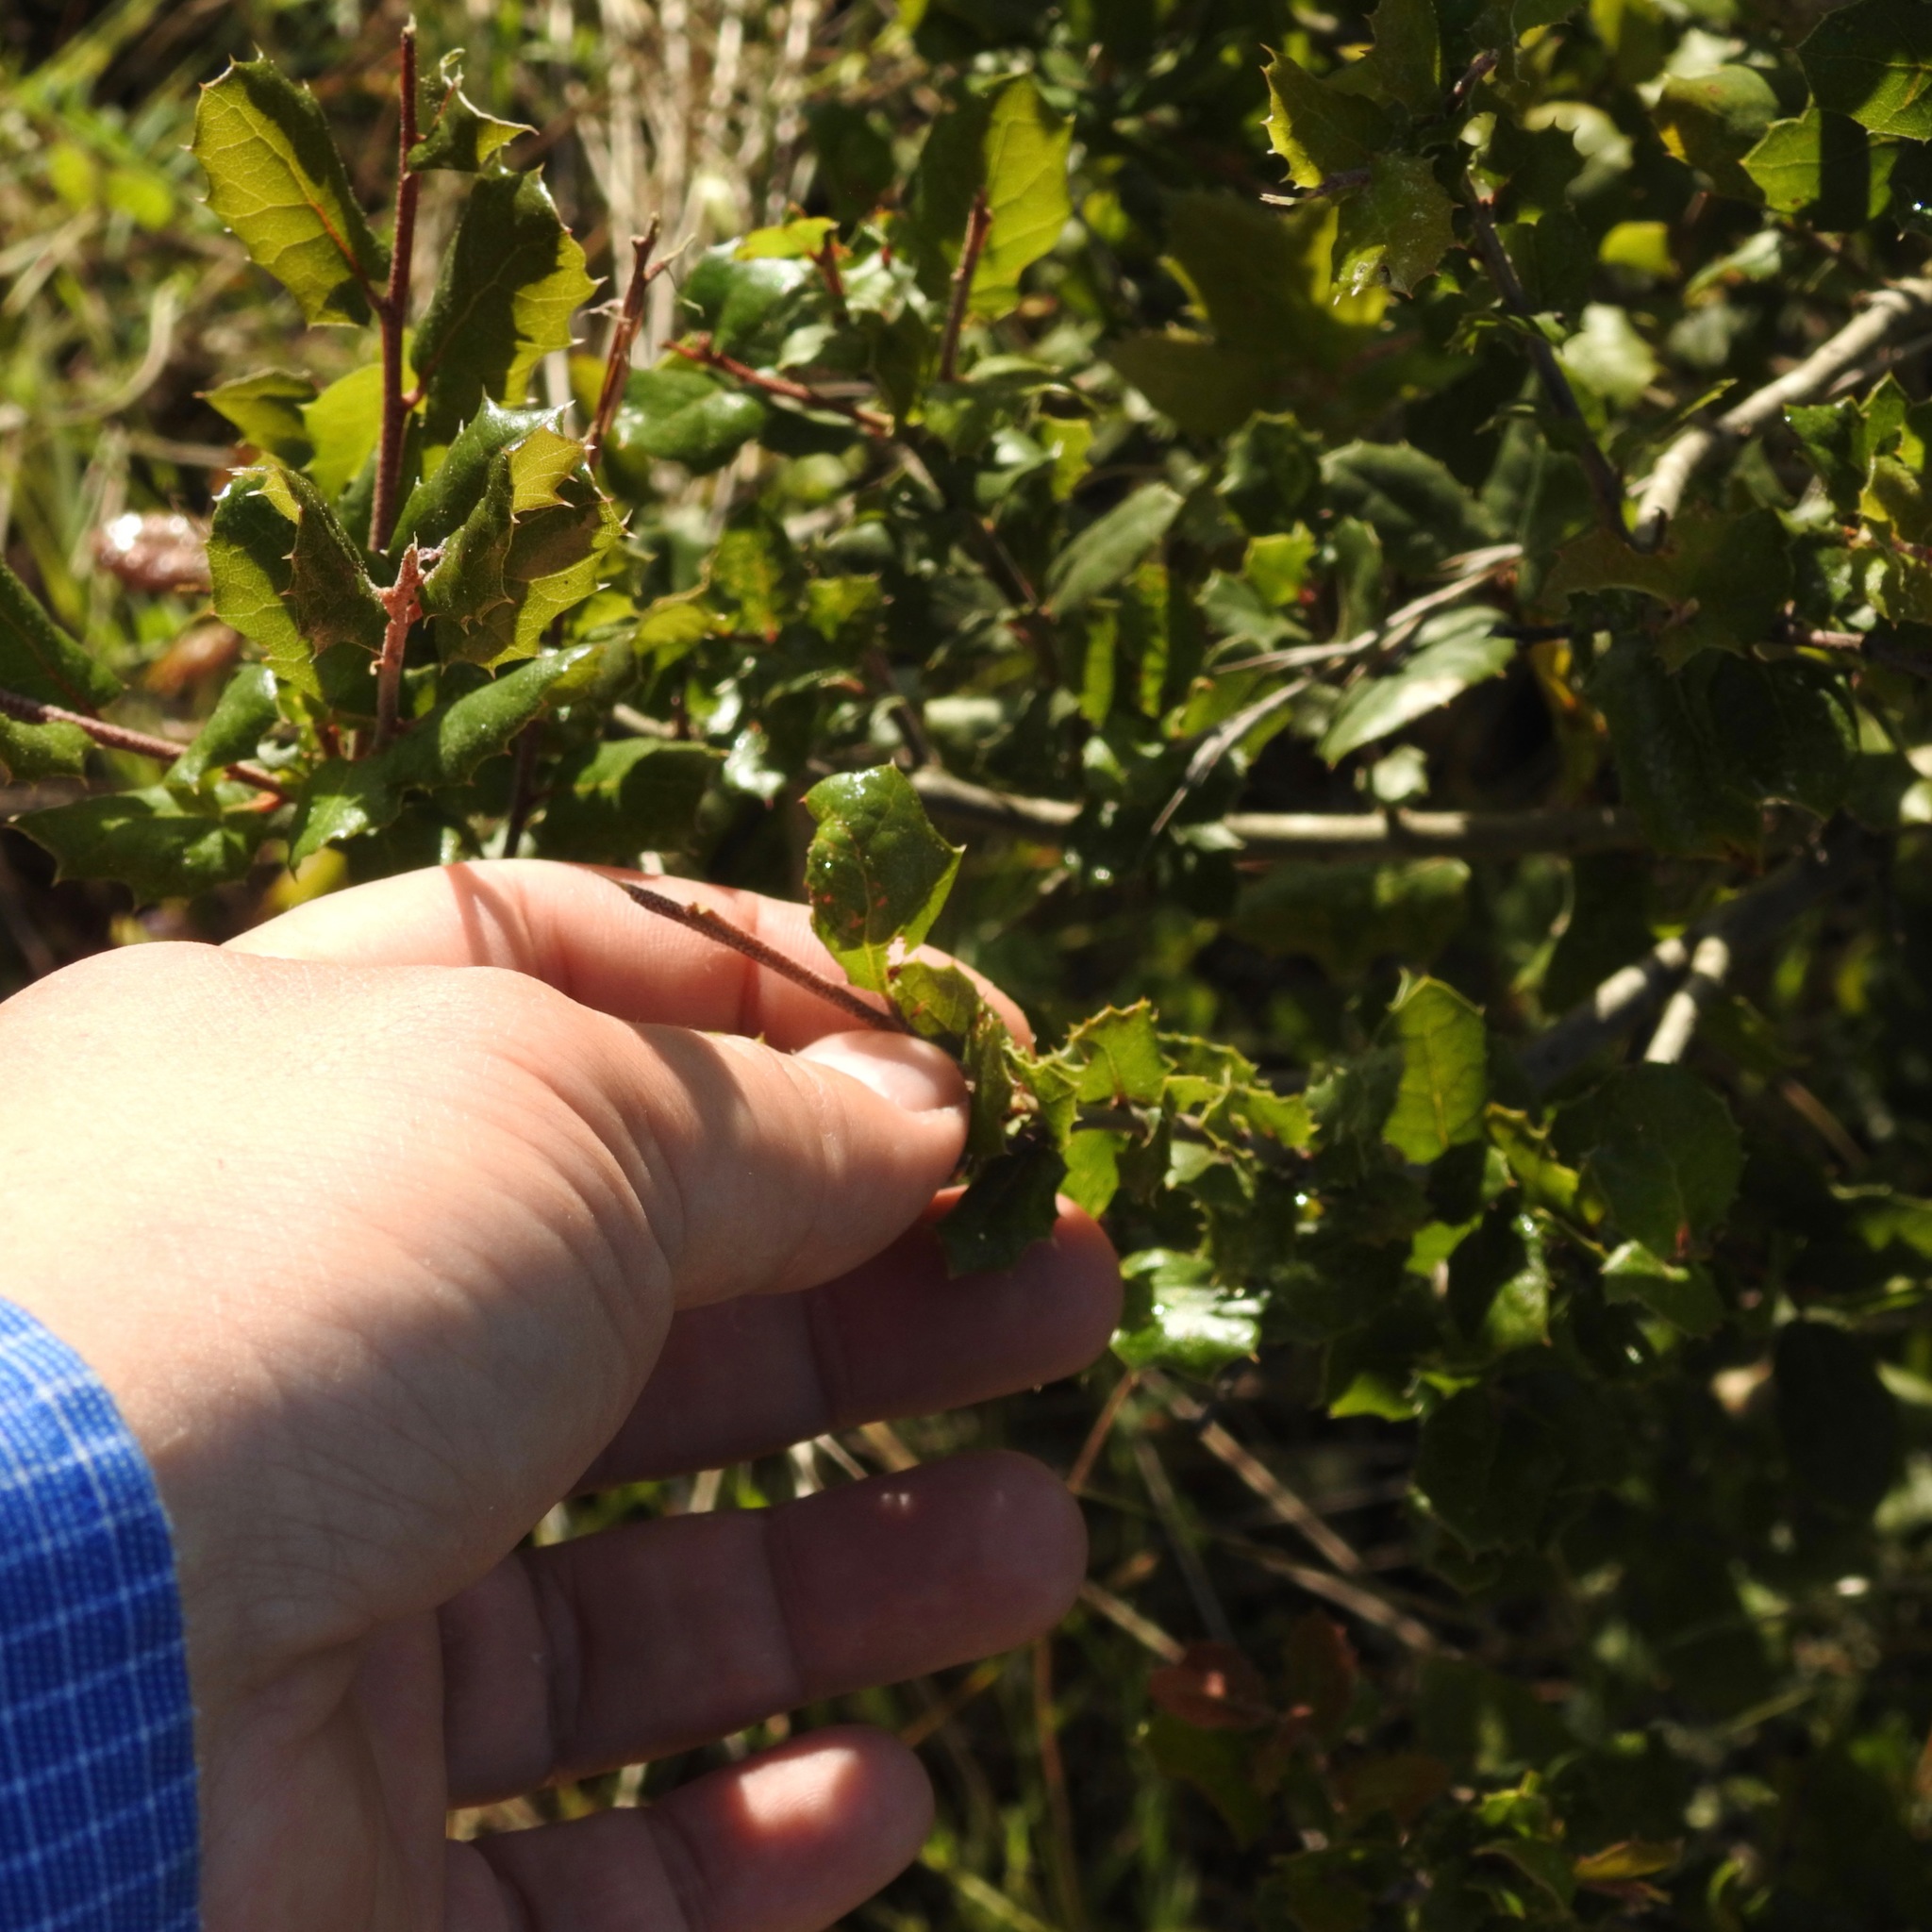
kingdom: Plantae
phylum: Tracheophyta
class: Magnoliopsida
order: Fagales
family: Fagaceae
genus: Quercus
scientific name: Quercus berberidifolia
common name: California scrub oak
